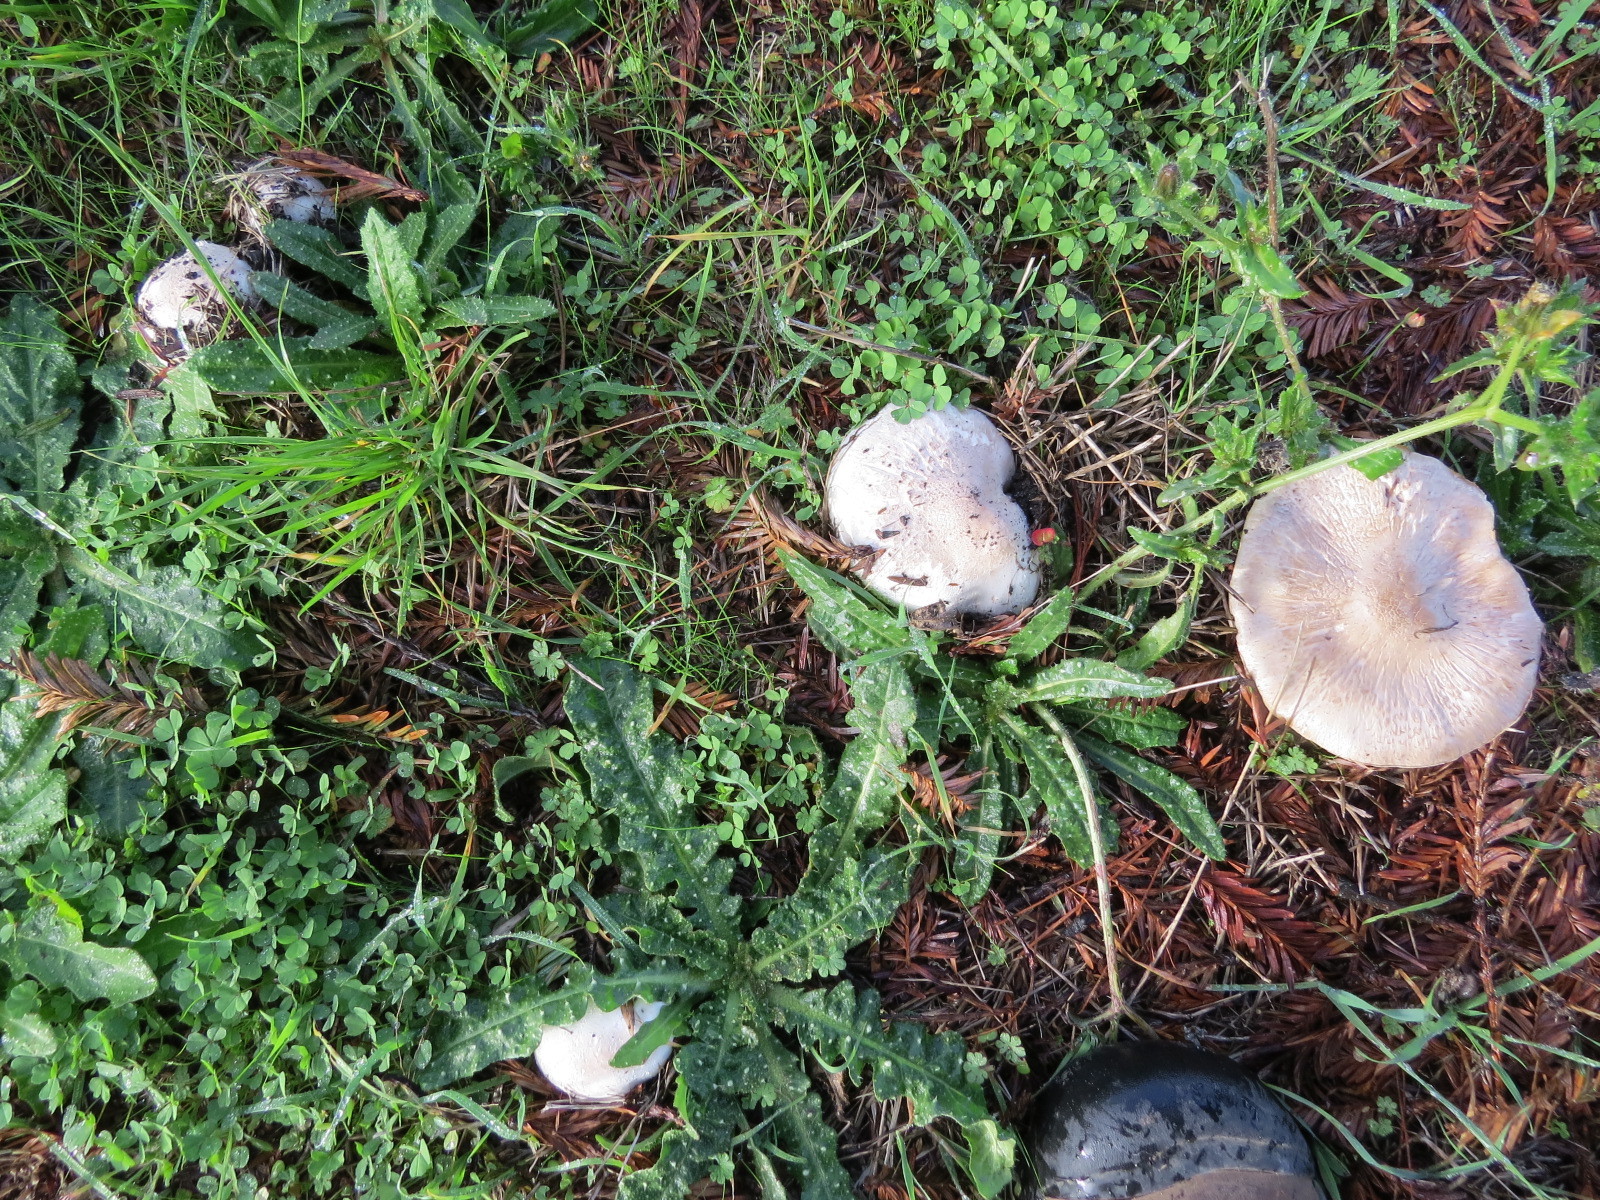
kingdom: Fungi
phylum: Basidiomycota
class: Agaricomycetes
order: Agaricales
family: Agaricaceae
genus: Agaricus
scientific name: Agaricus xanthodermus
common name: Yellow stainer
